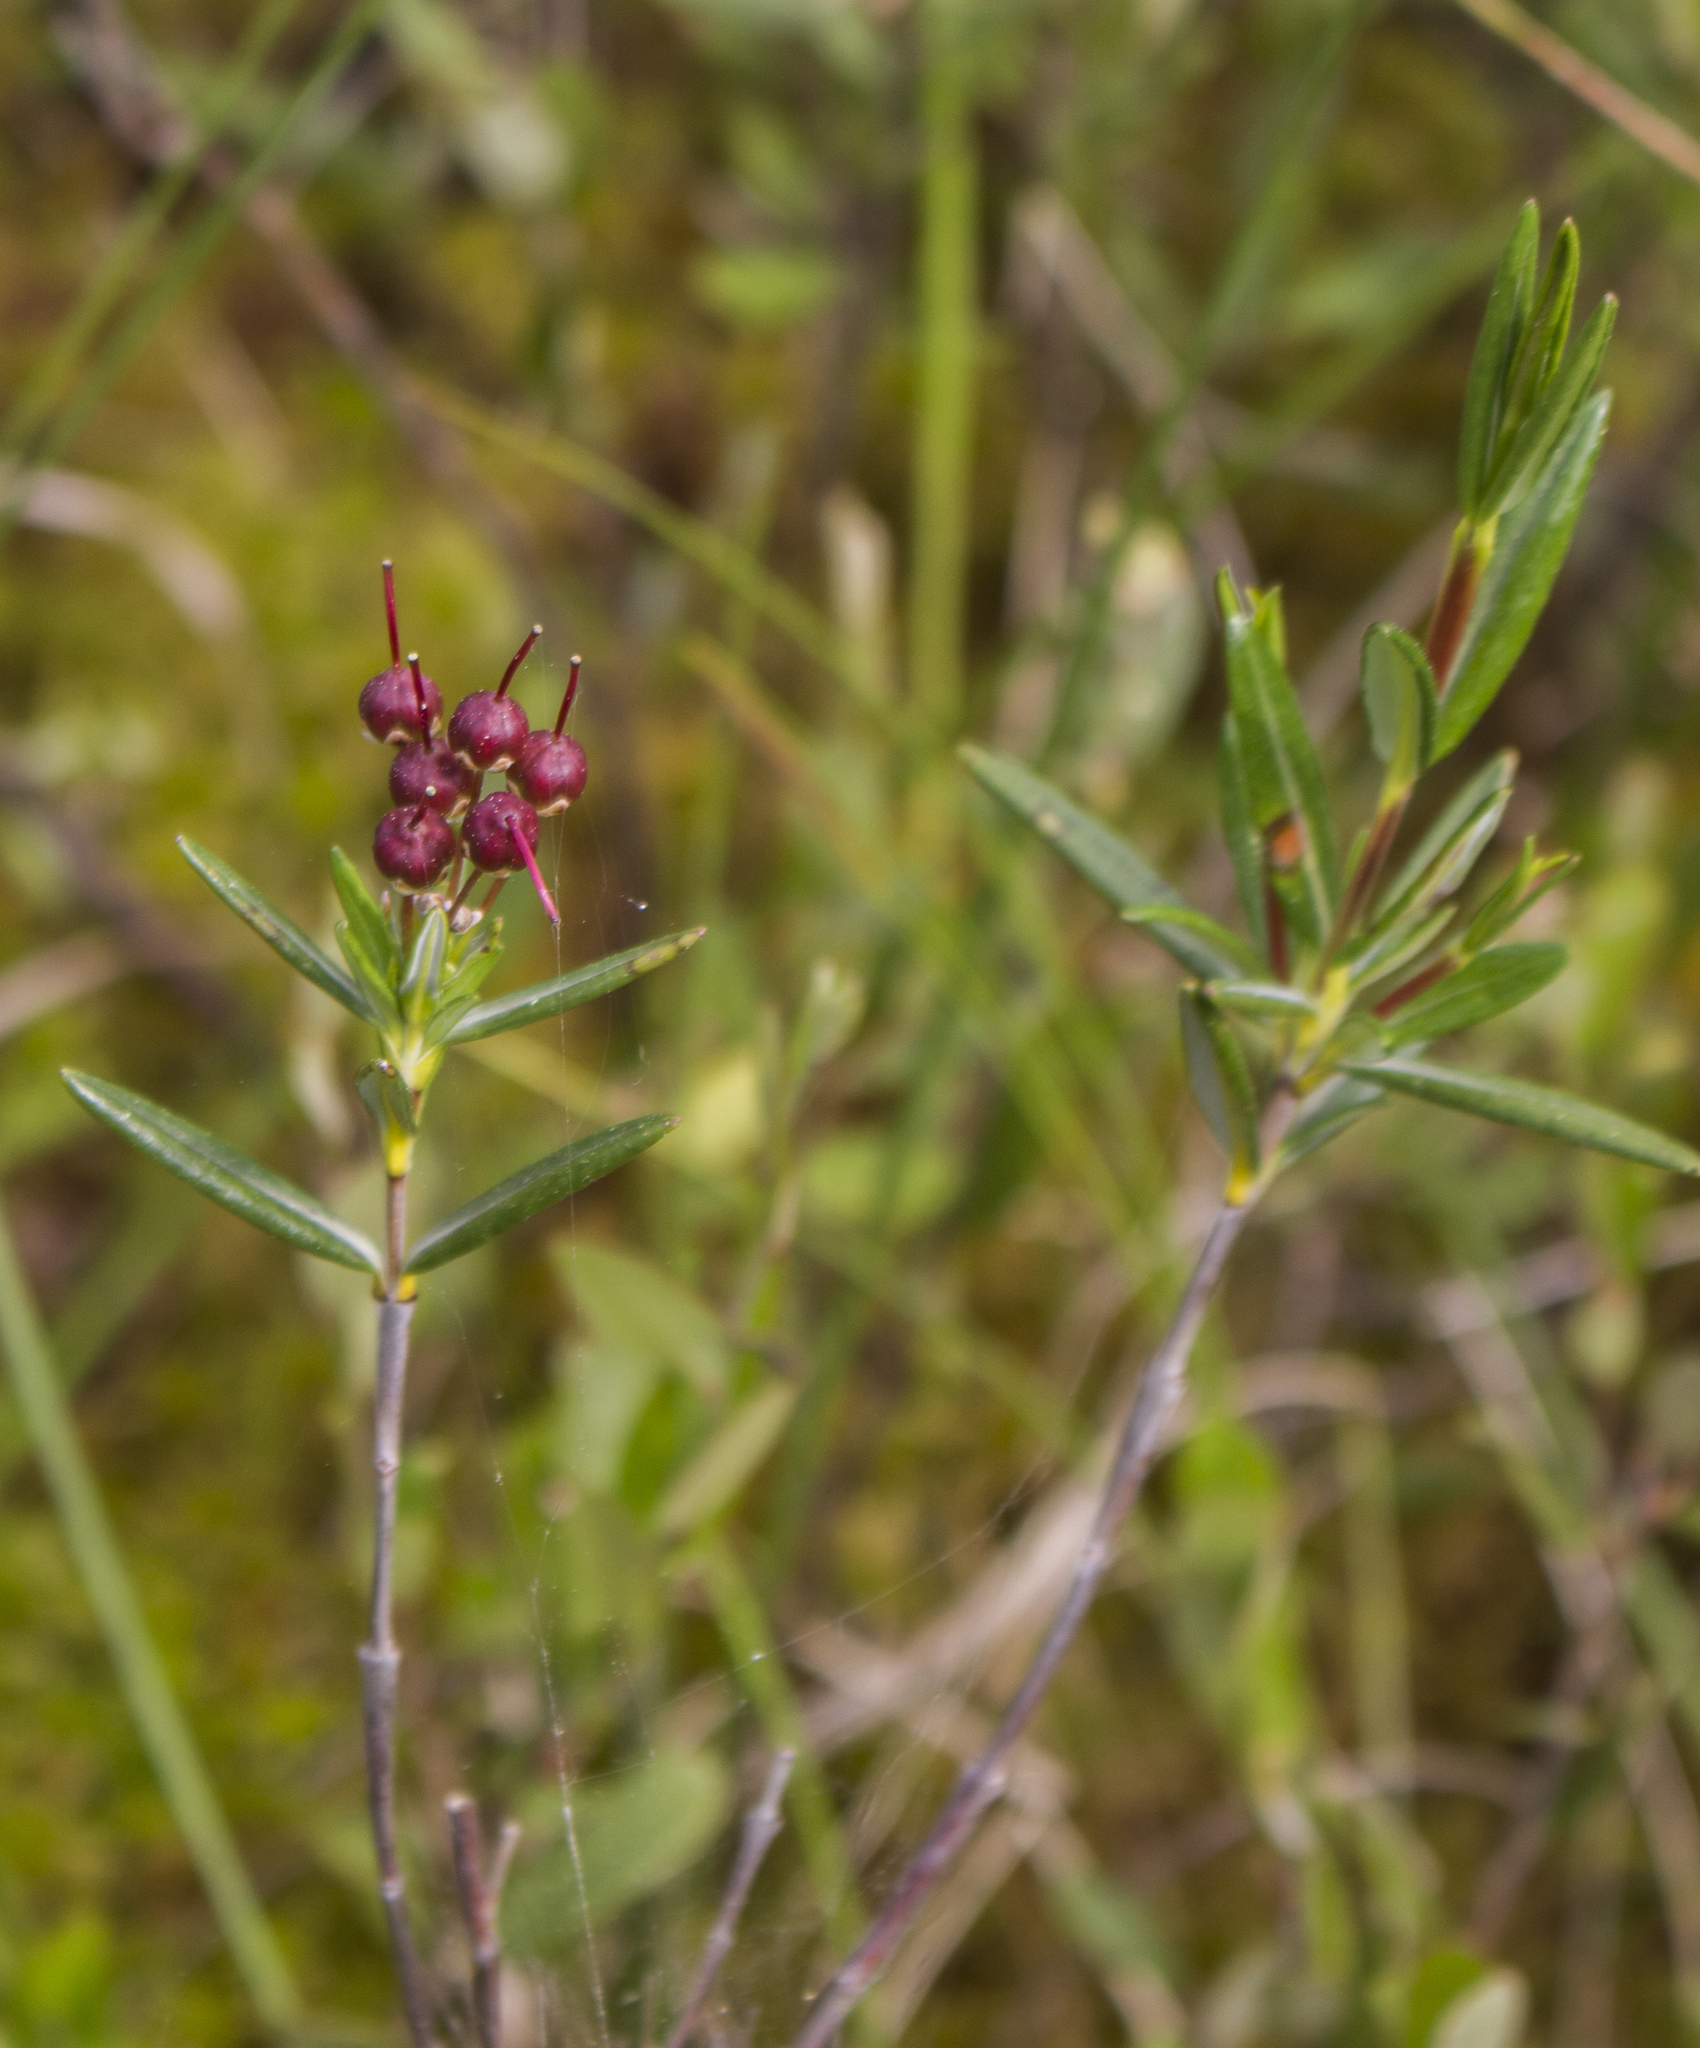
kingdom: Plantae
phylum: Tracheophyta
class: Magnoliopsida
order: Ericales
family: Ericaceae
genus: Kalmia
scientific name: Kalmia polifolia
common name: Bog-laurel
